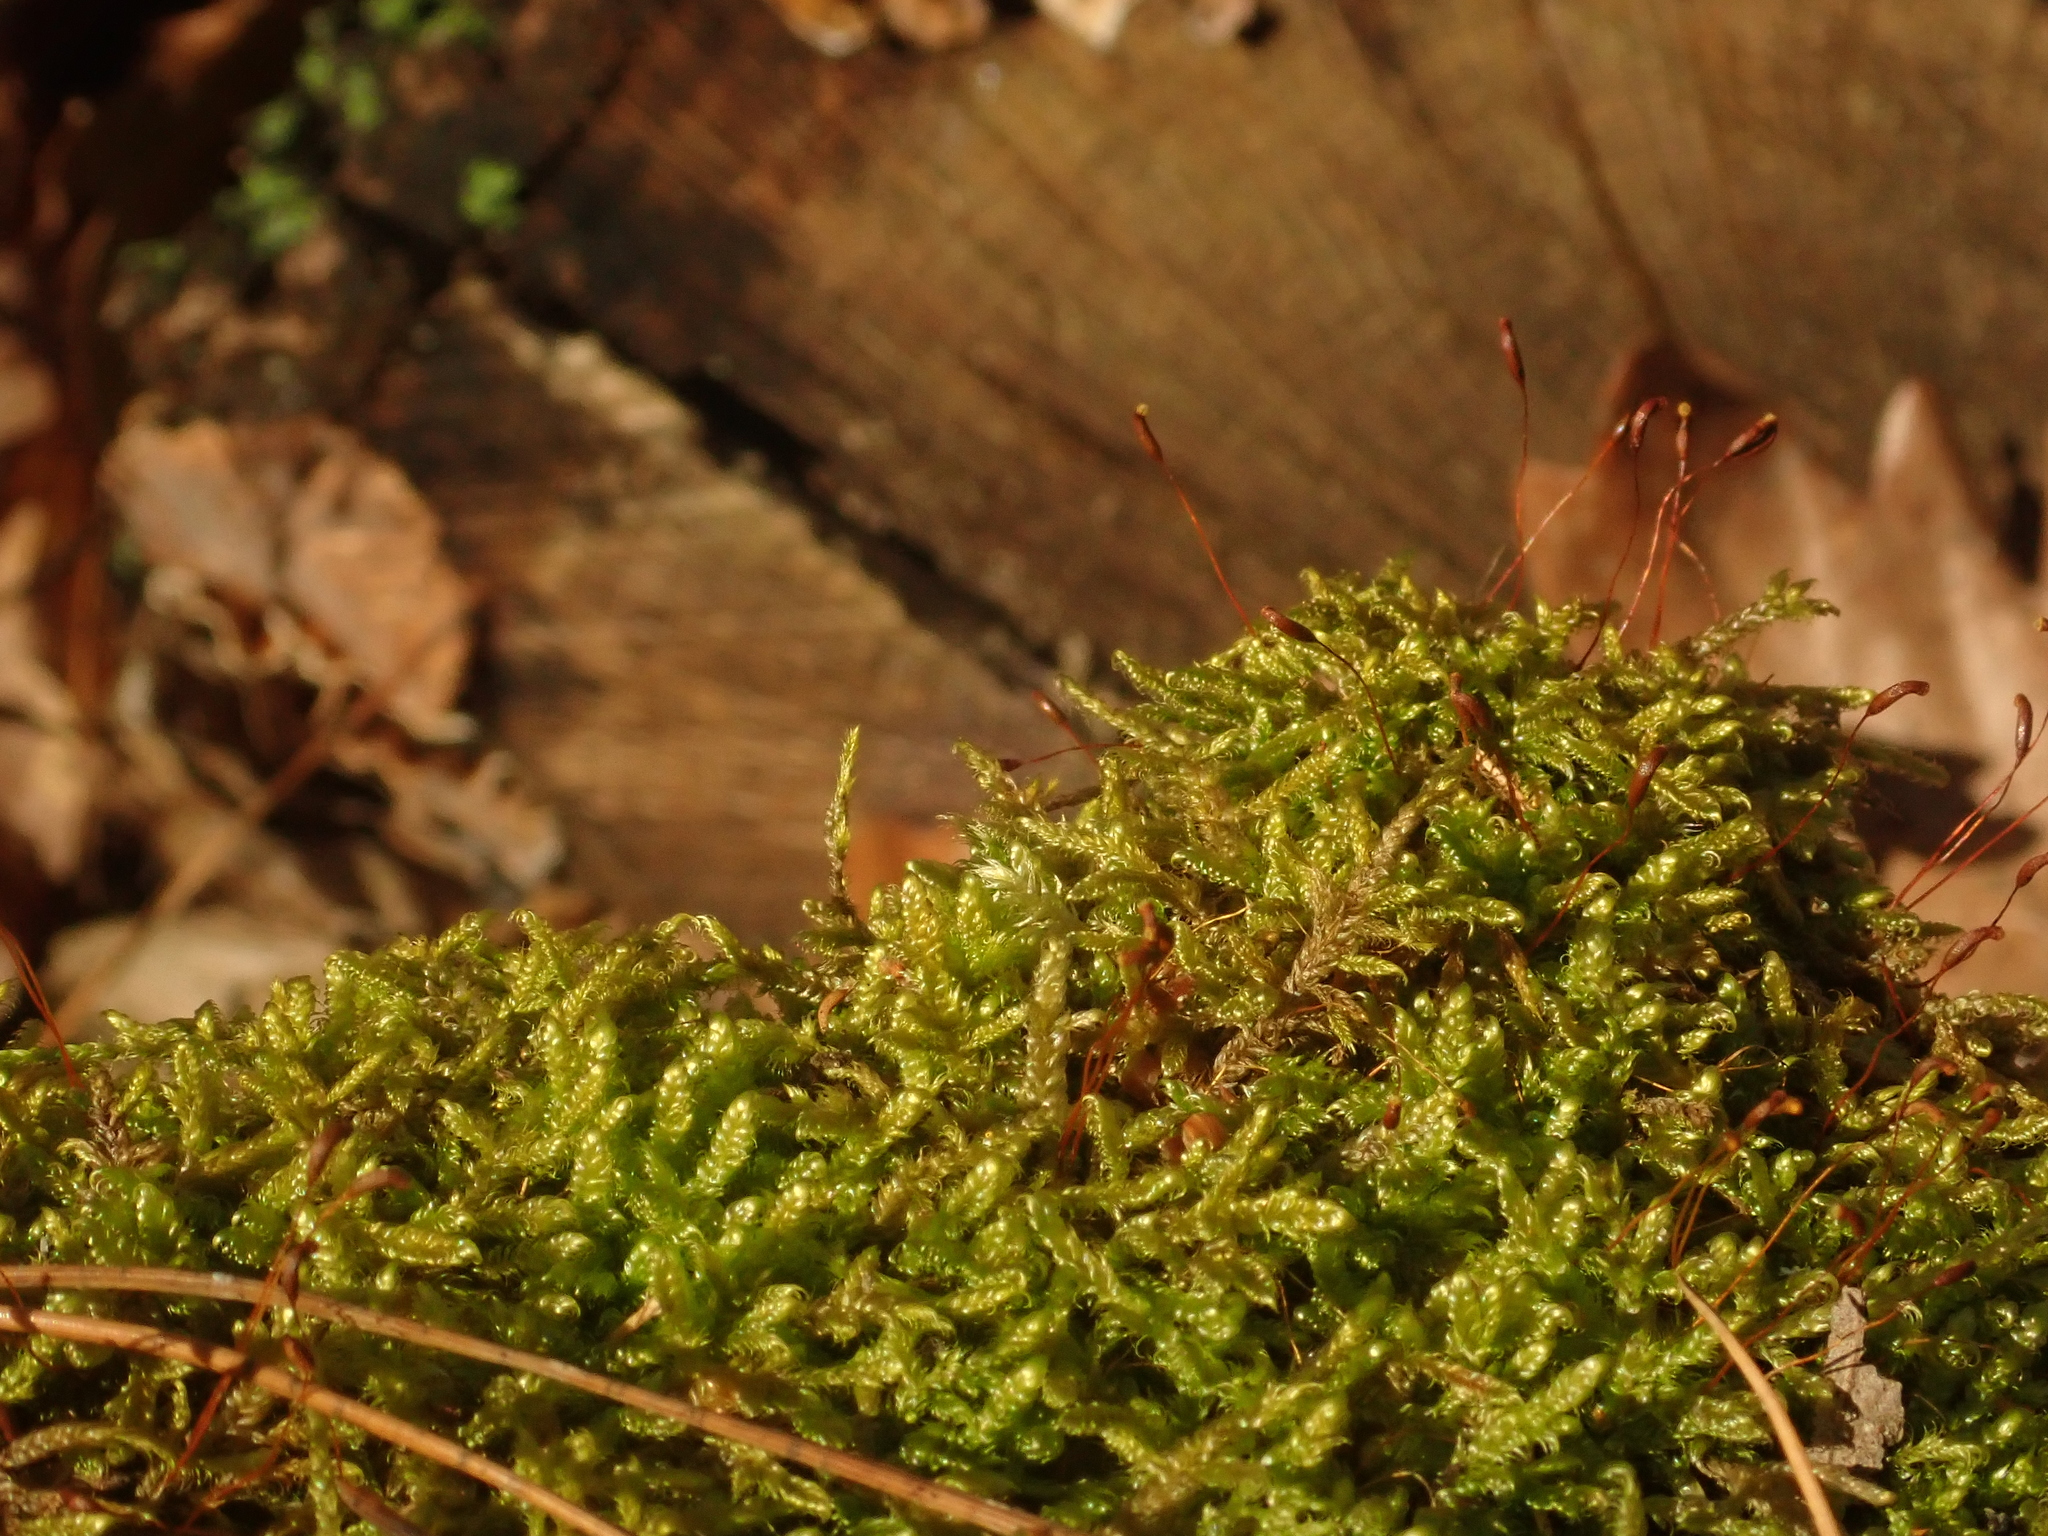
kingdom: Plantae
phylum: Bryophyta
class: Bryopsida
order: Hypnales
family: Hypnaceae
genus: Hypnum
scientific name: Hypnum cupressiforme
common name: Cypress-leaved plait-moss
